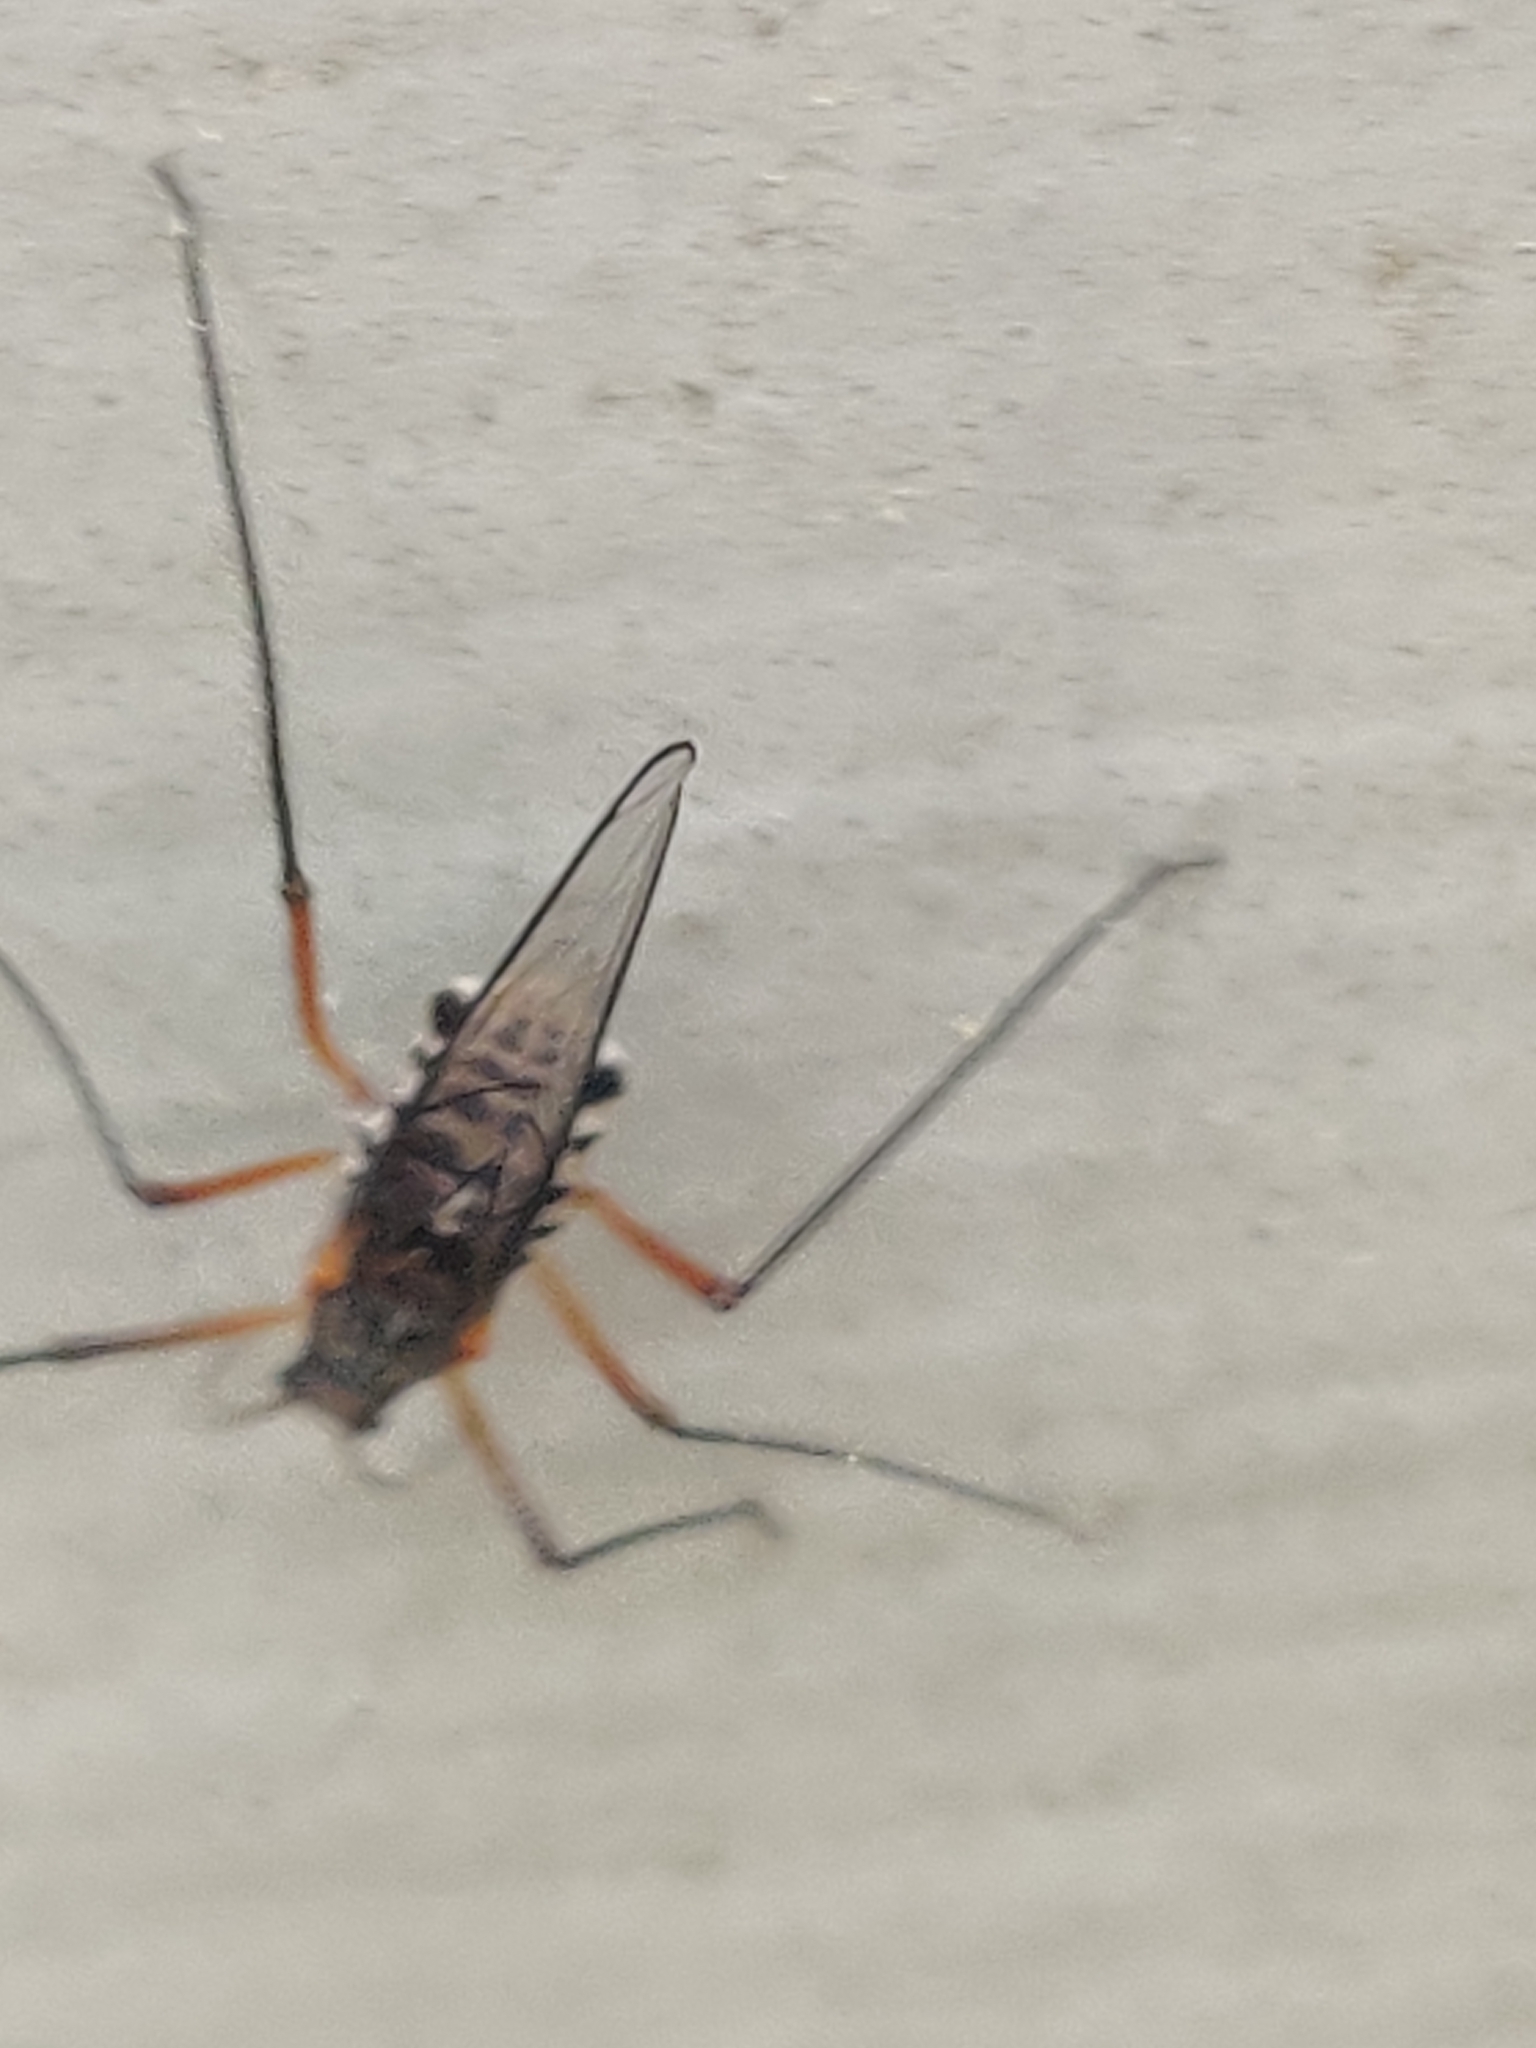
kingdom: Animalia
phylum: Arthropoda
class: Insecta
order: Hemiptera
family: Aphididae
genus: Longistigma
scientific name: Longistigma caryae
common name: Giant bark aphid
